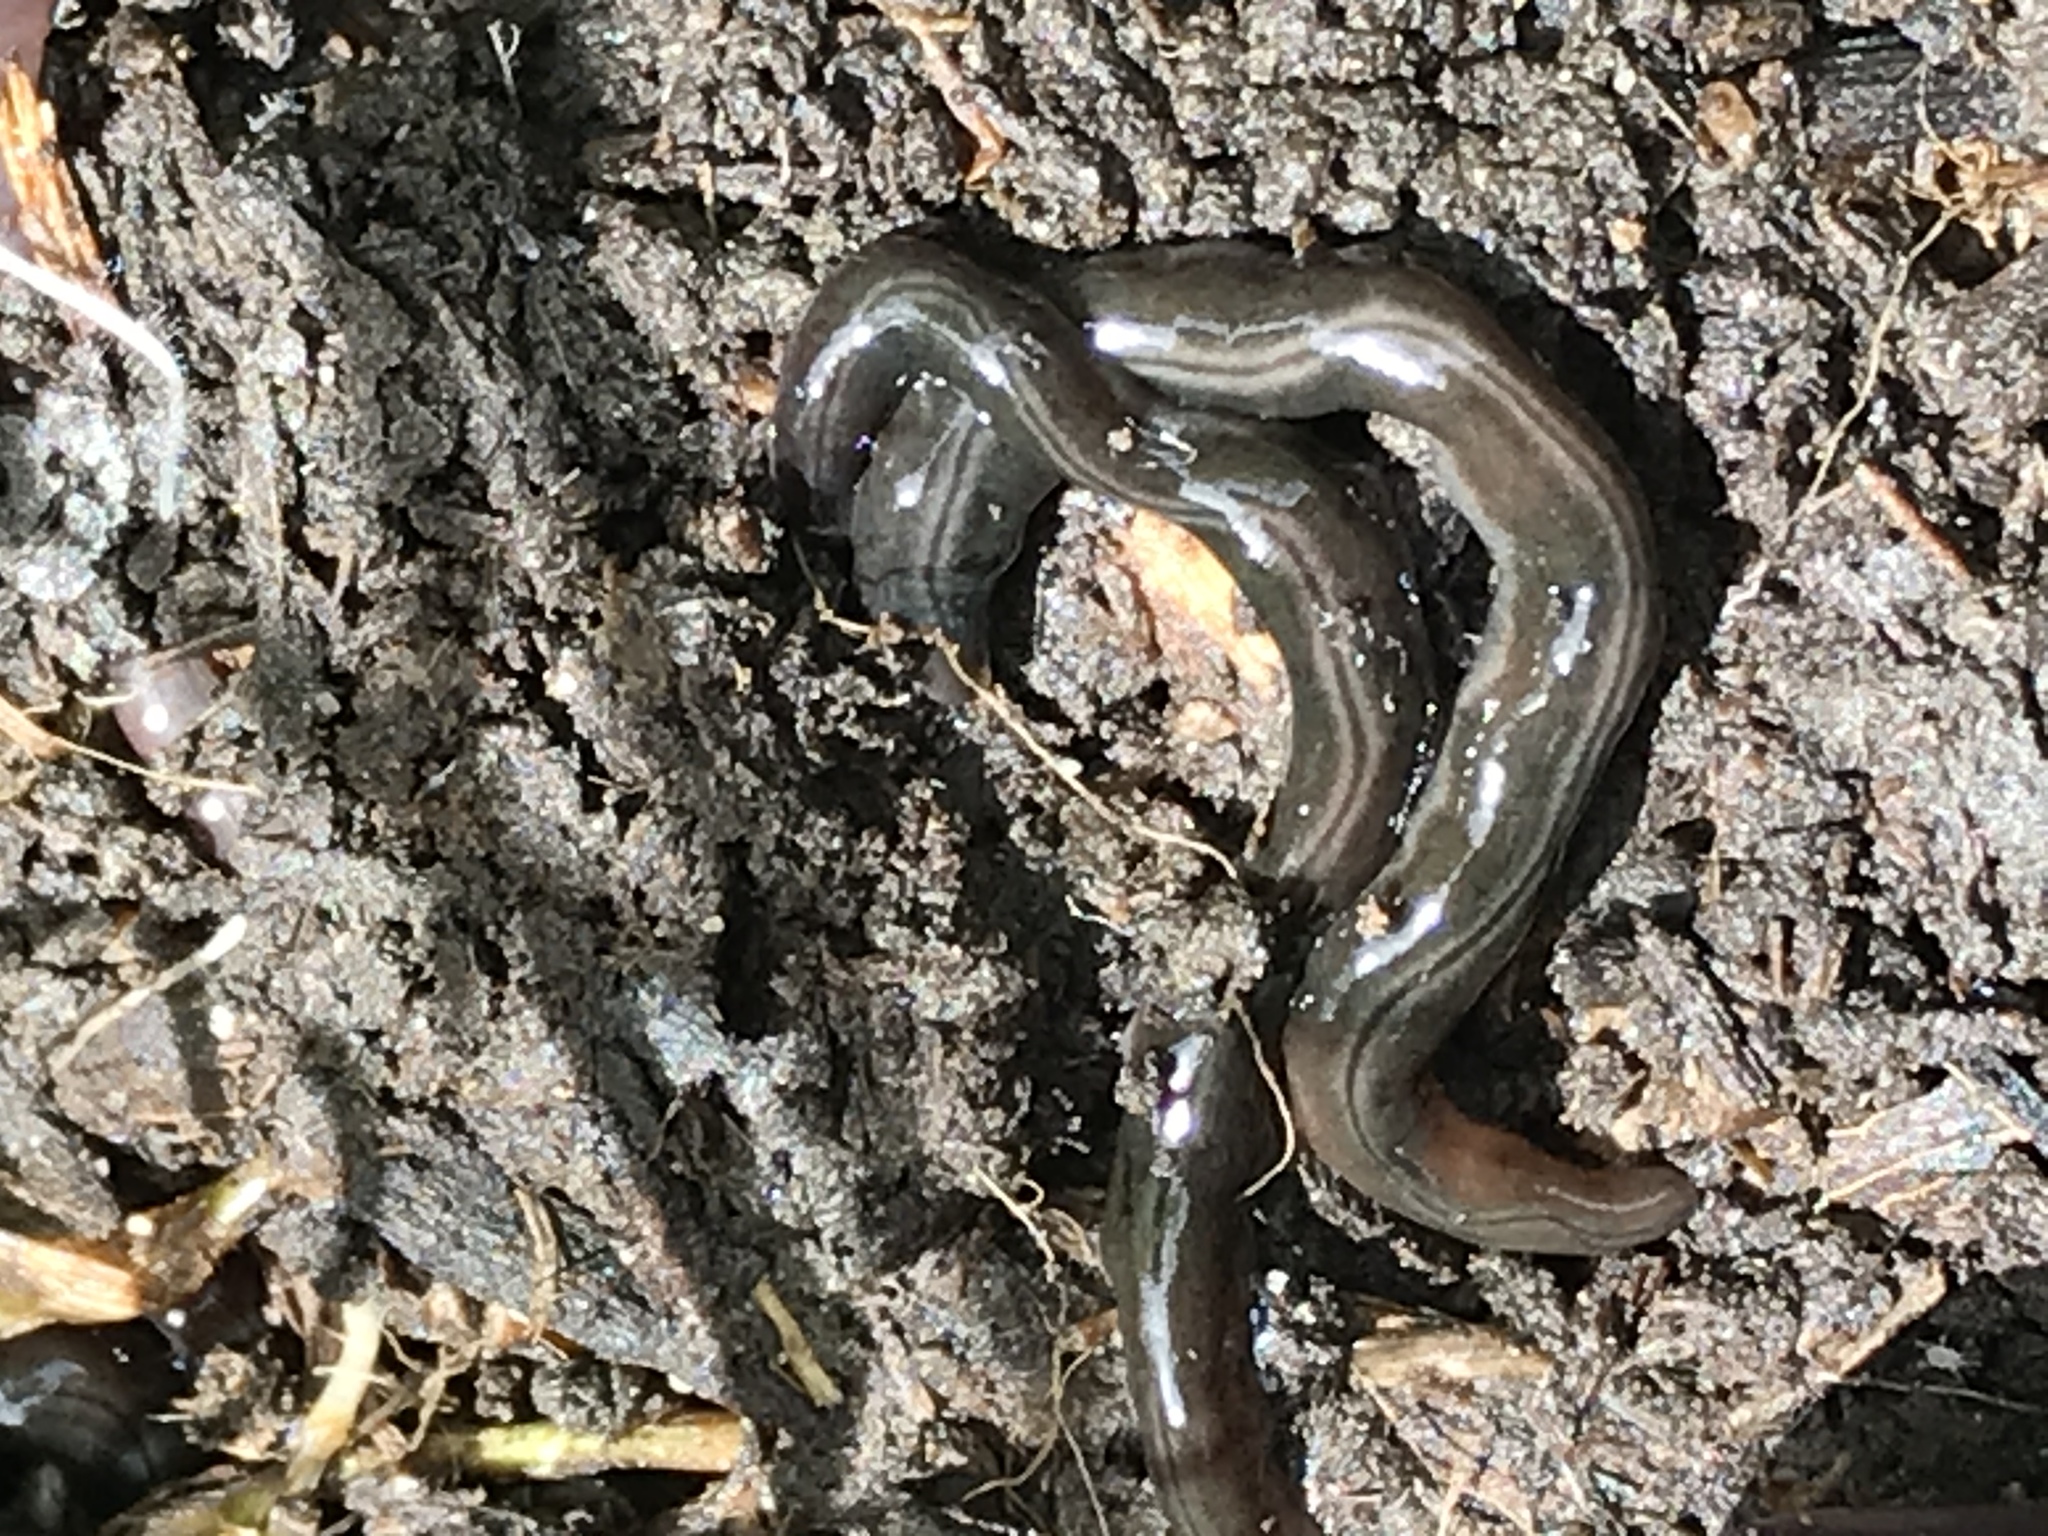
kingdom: Animalia
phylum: Platyhelminthes
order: Tricladida
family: Geoplanidae
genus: Parakontikia
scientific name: Parakontikia ventrolineata
